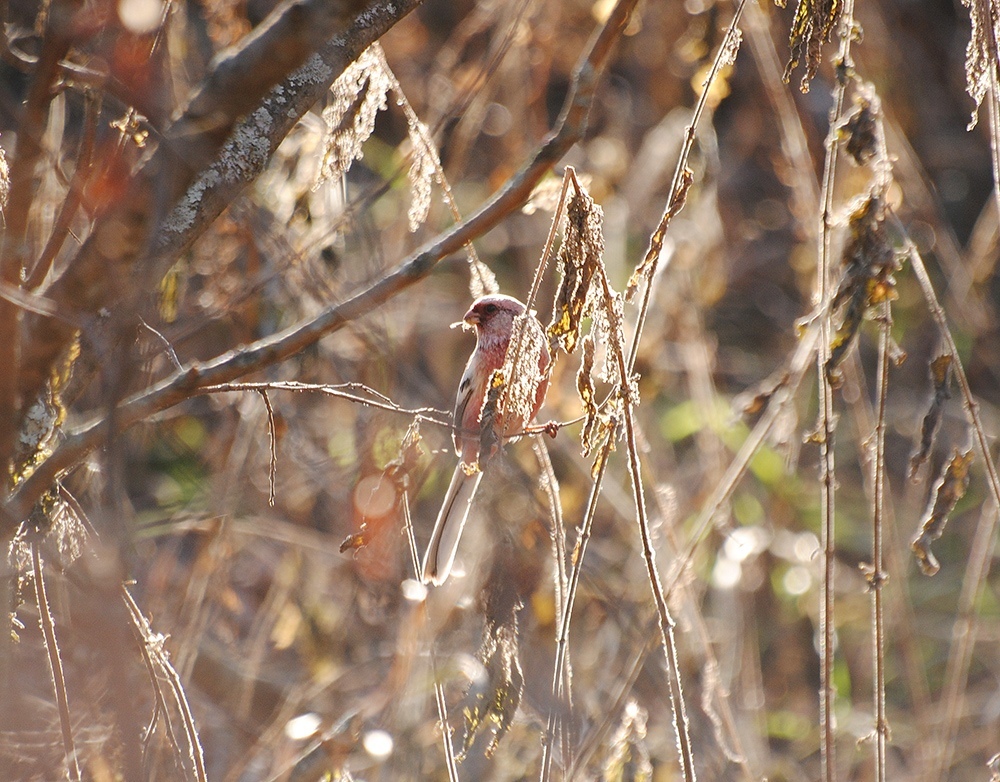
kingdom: Animalia
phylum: Chordata
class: Aves
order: Passeriformes
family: Fringillidae
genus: Carpodacus
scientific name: Carpodacus sibiricus
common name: Long-tailed rosefinch
